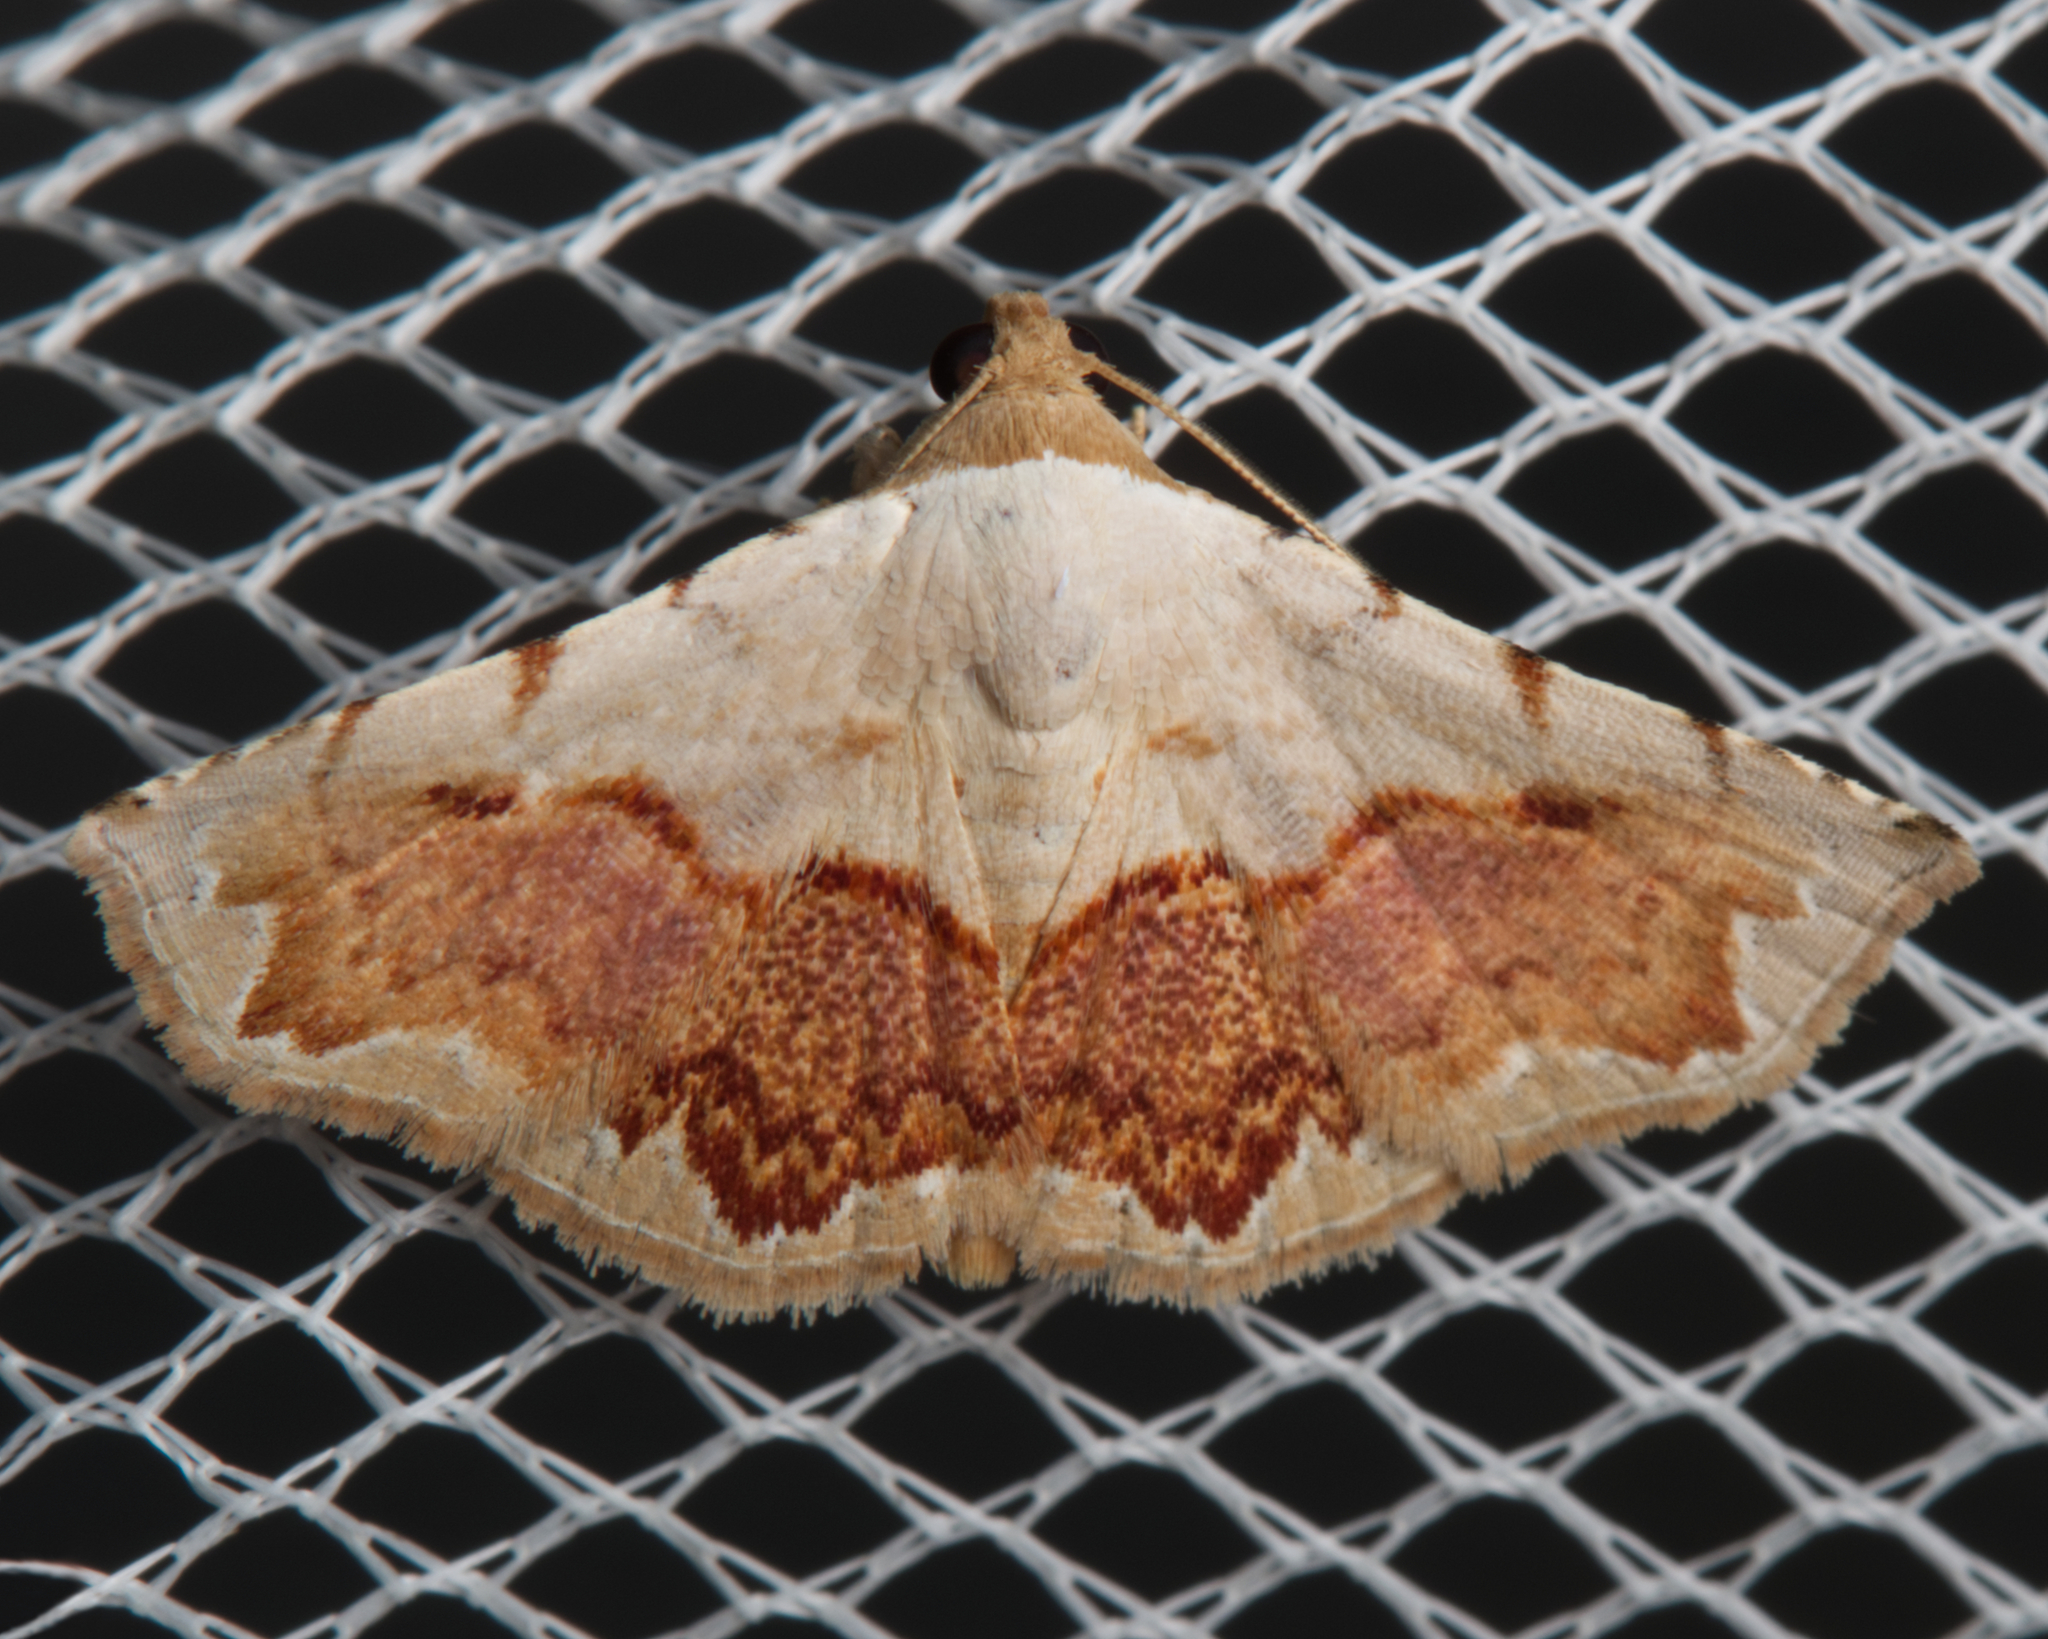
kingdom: Animalia
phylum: Arthropoda
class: Insecta
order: Lepidoptera
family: Noctuidae
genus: Eublemma
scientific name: Eublemma
